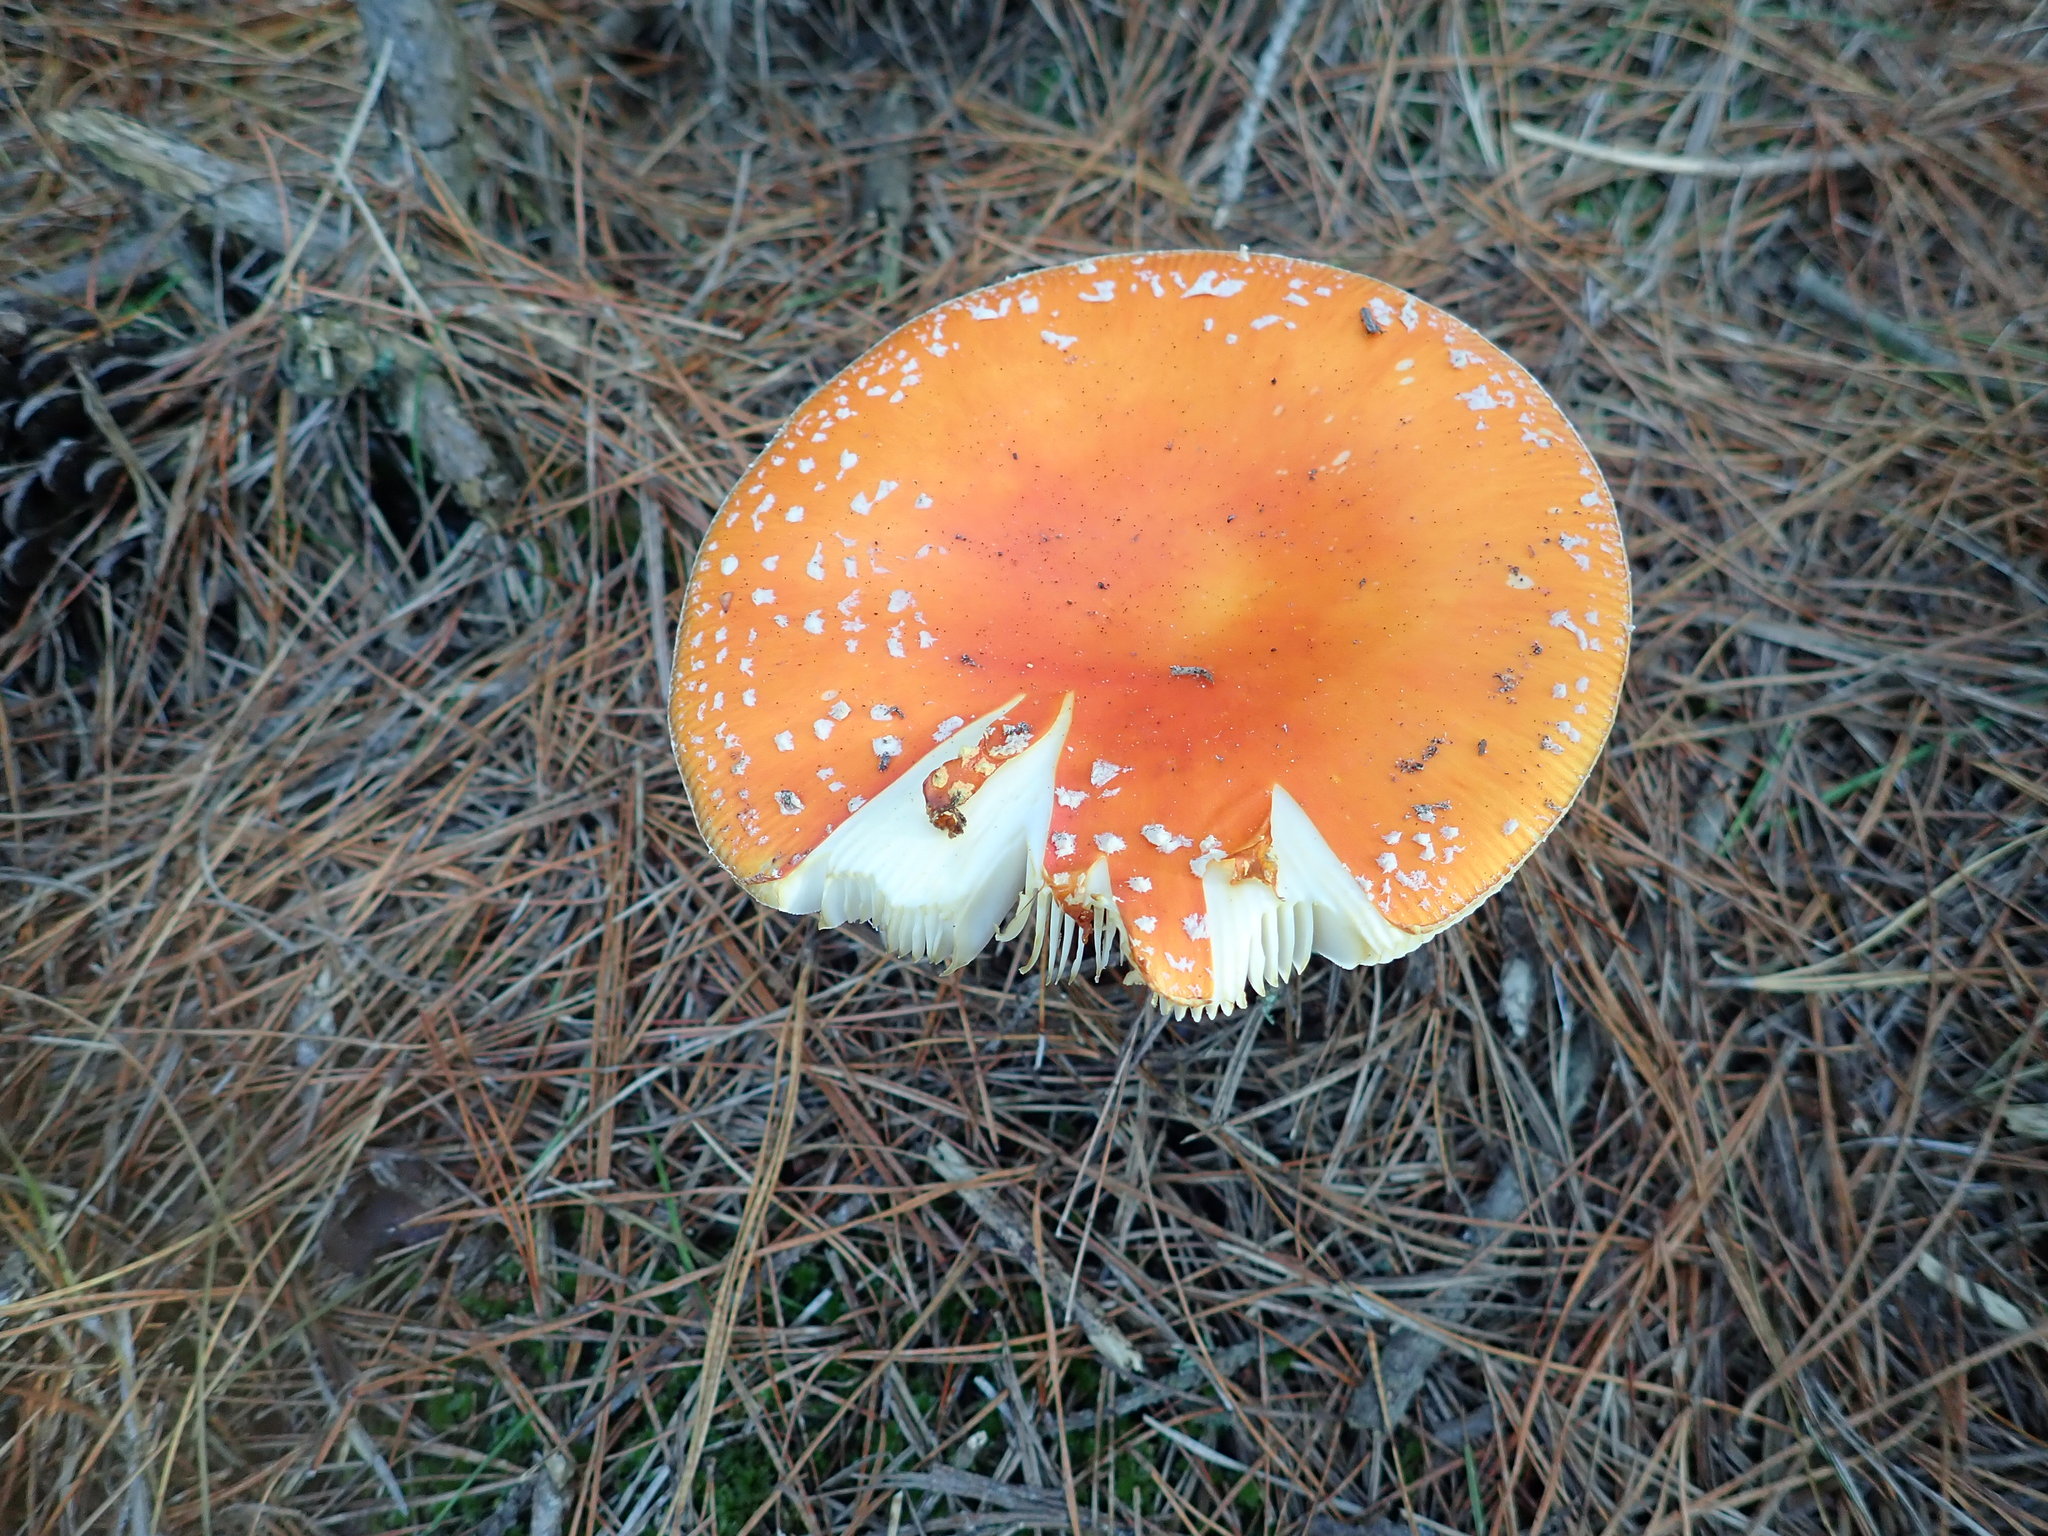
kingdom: Fungi
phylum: Basidiomycota
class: Agaricomycetes
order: Agaricales
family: Amanitaceae
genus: Amanita
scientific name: Amanita muscaria
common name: Fly agaric
